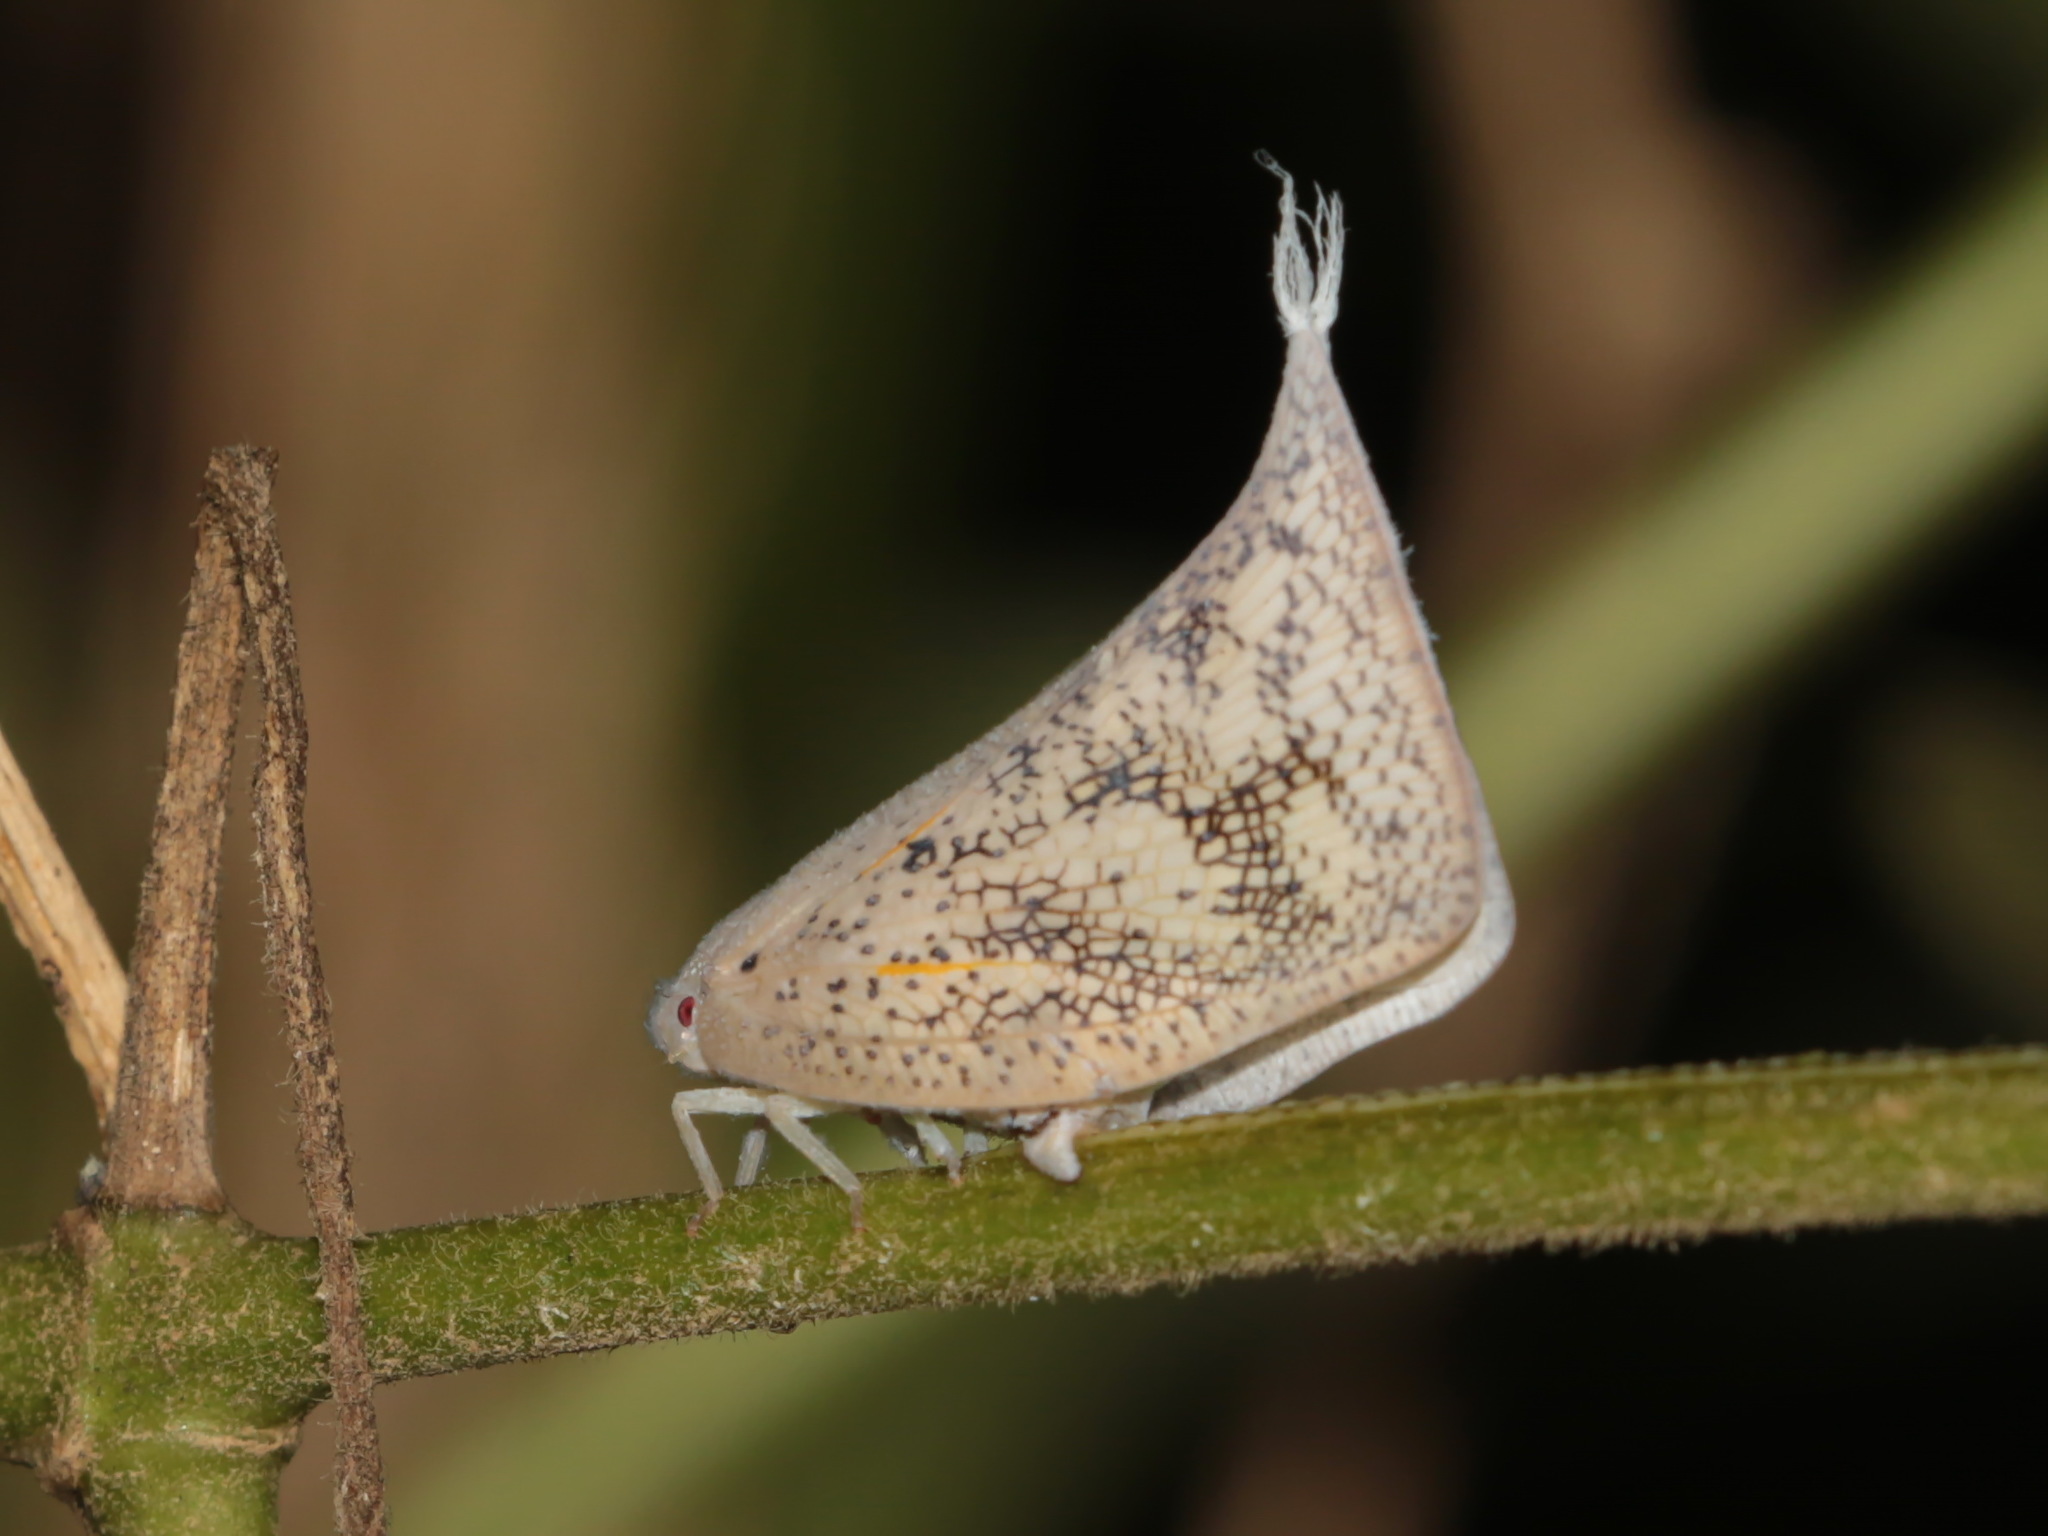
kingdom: Animalia
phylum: Arthropoda
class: Insecta
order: Hemiptera
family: Flatidae
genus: Lawana
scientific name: Lawana conspersa
